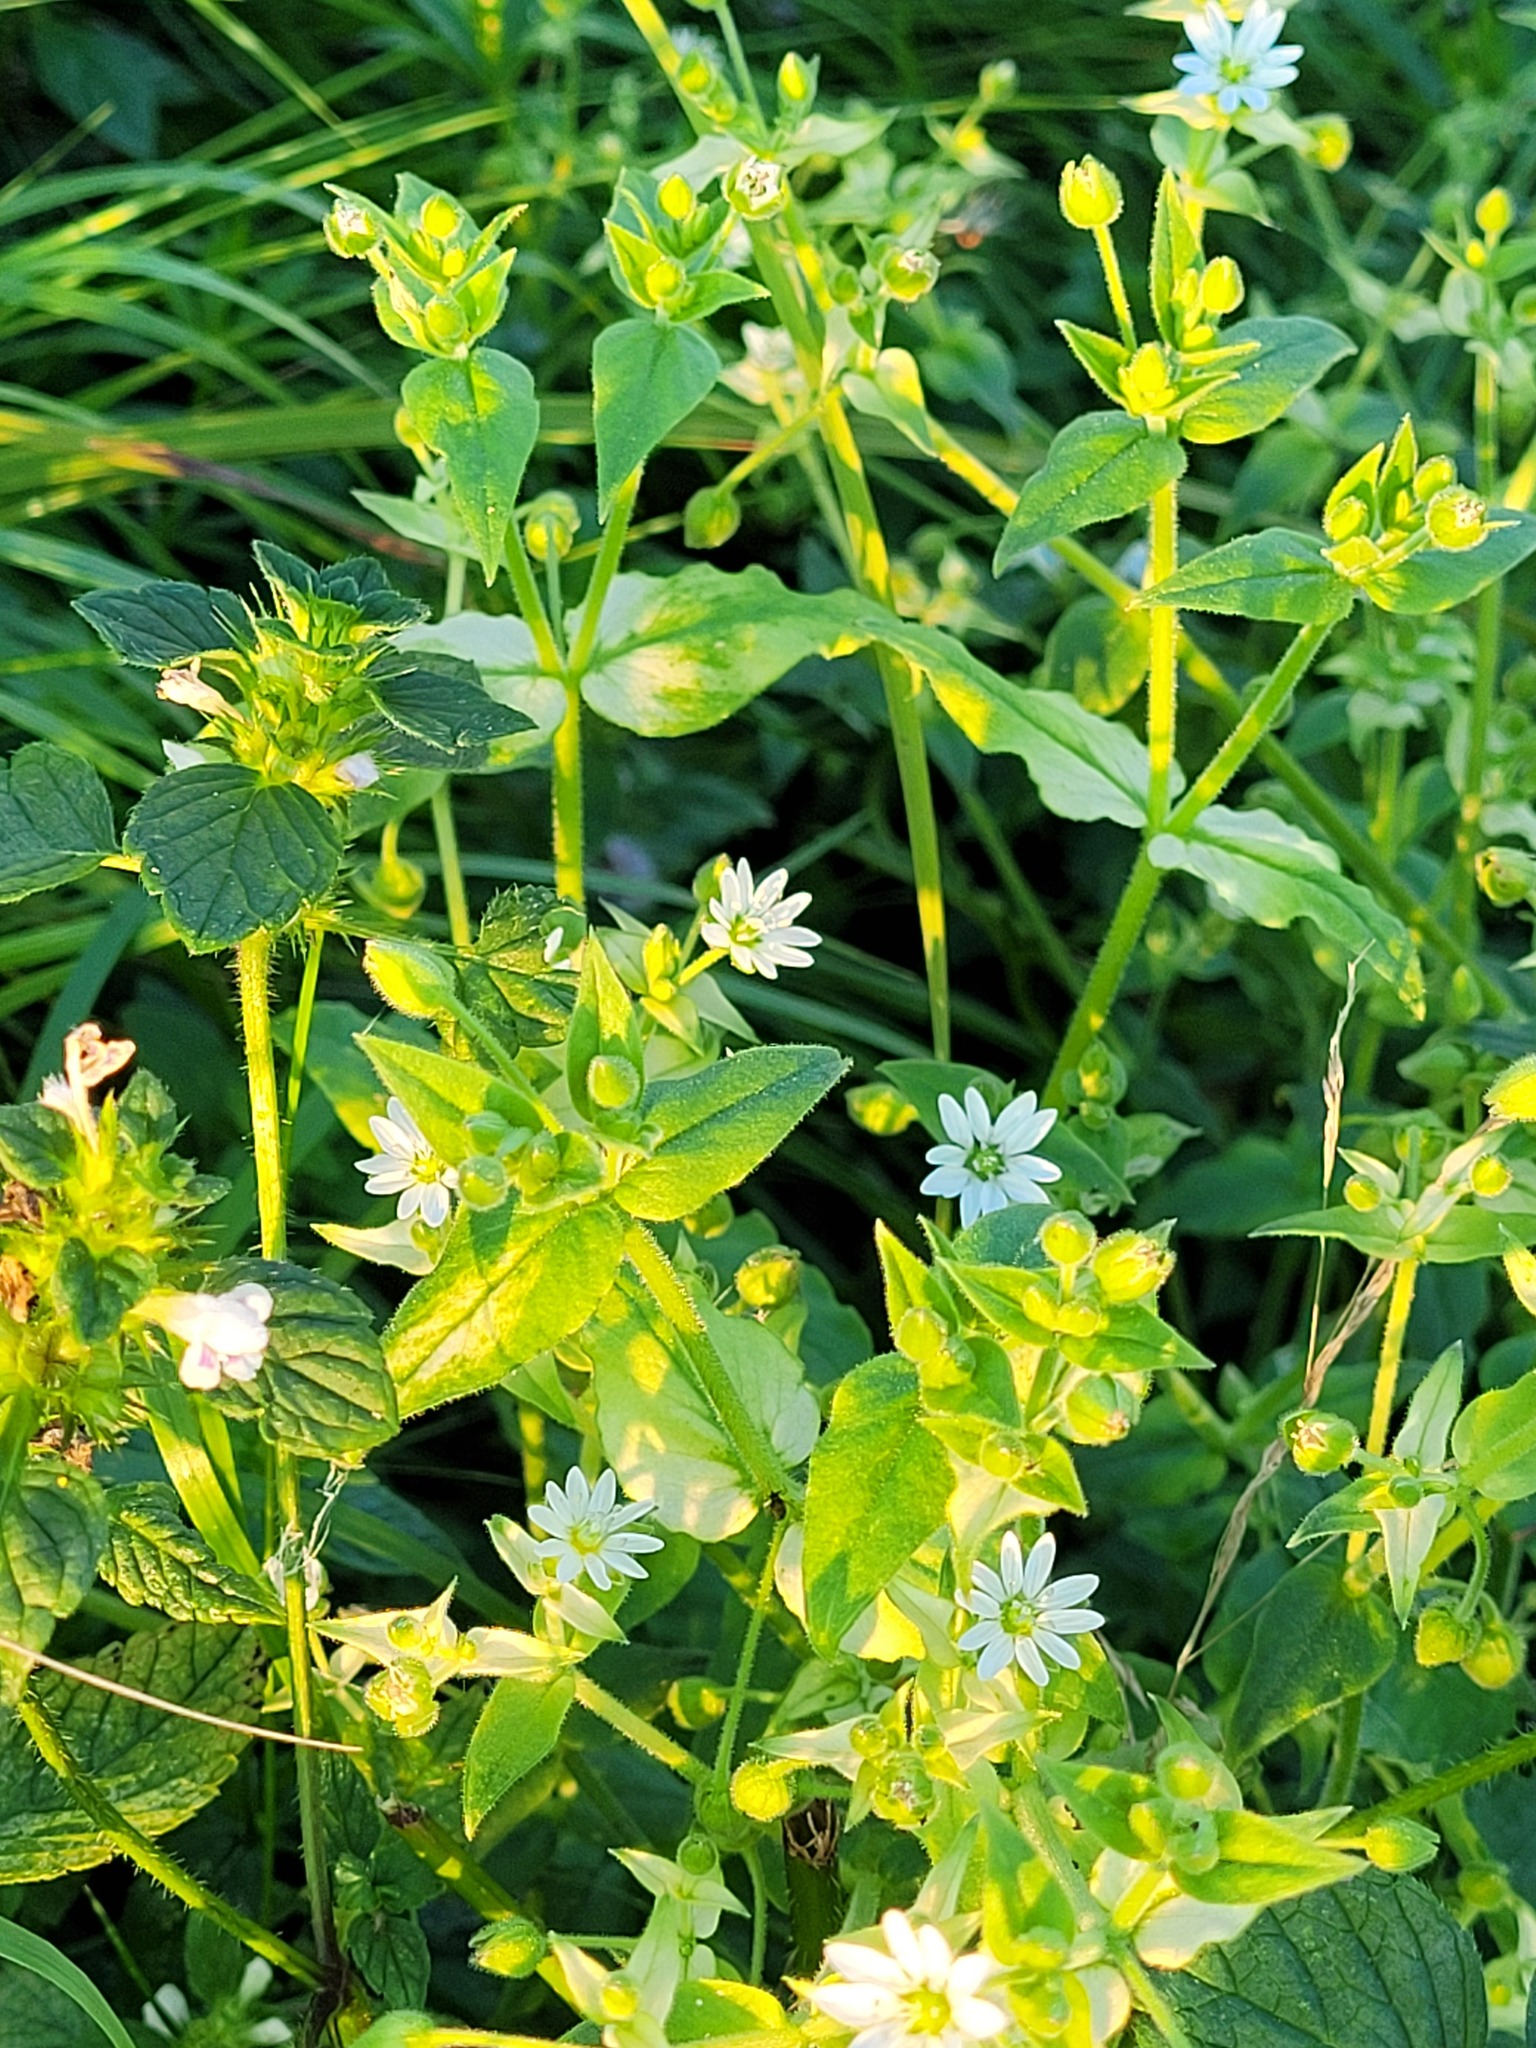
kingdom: Plantae
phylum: Tracheophyta
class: Magnoliopsida
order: Caryophyllales
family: Caryophyllaceae
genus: Stellaria
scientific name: Stellaria aquatica
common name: Water chickweed
